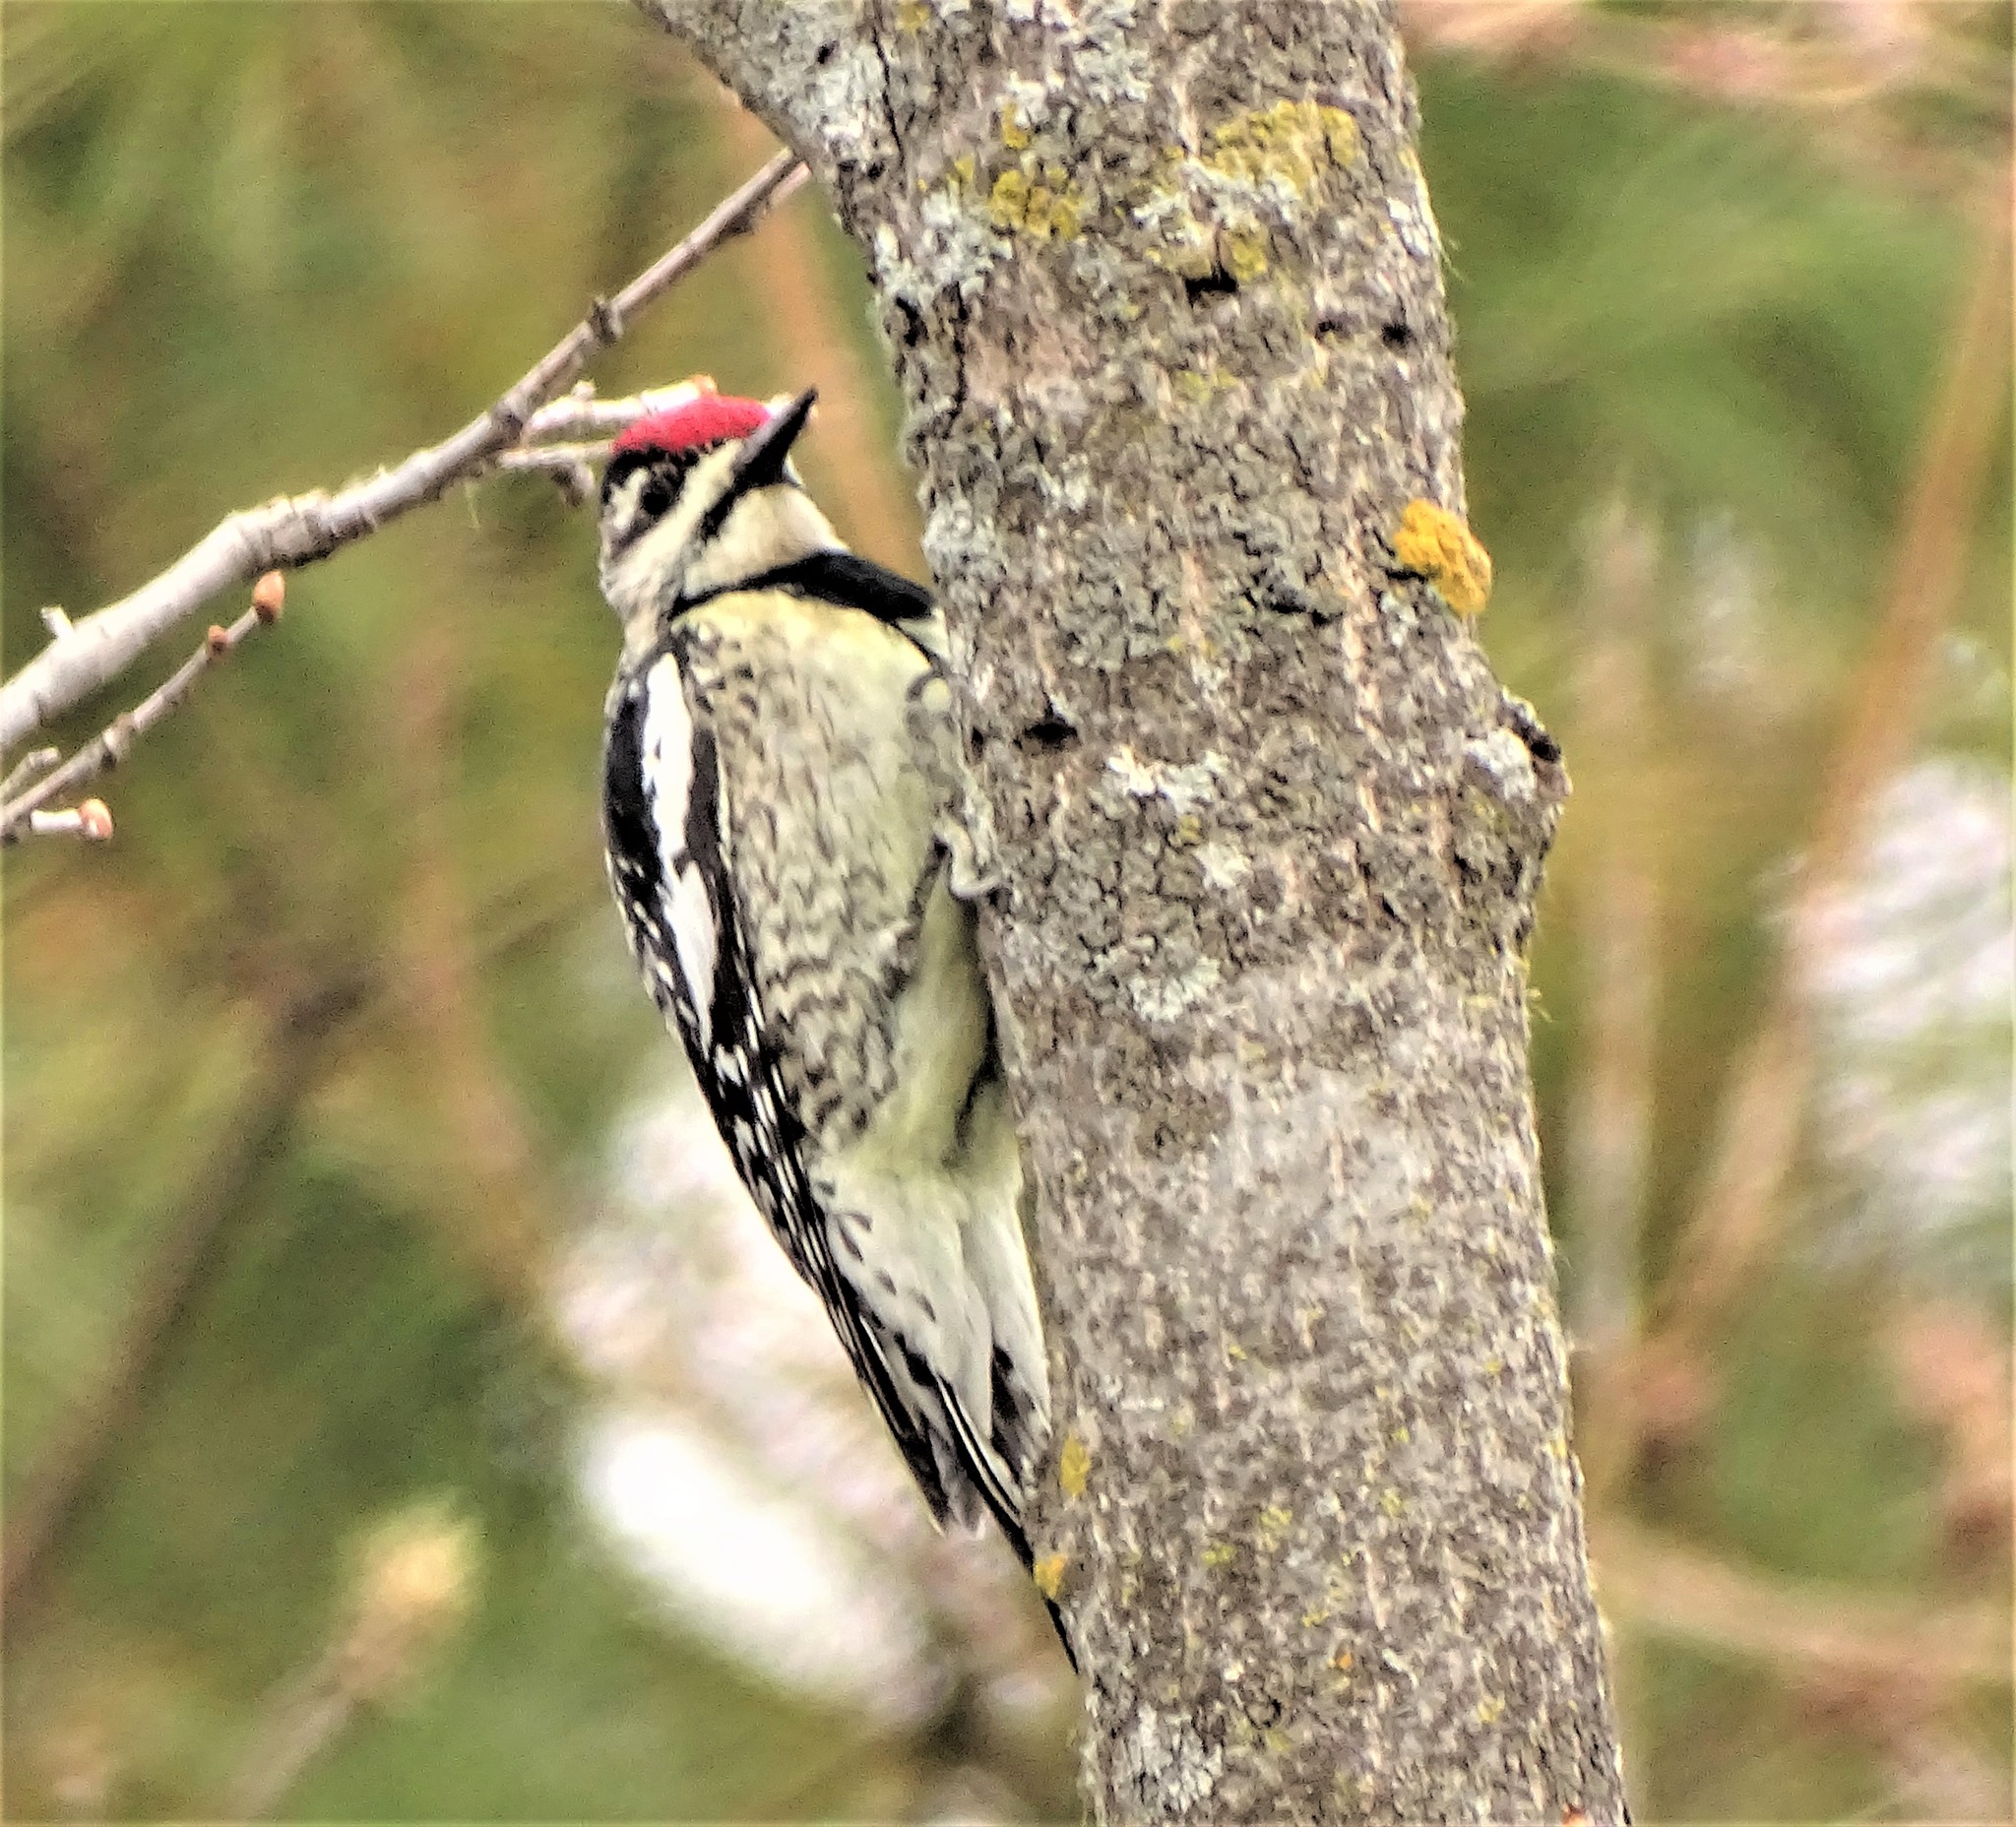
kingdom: Animalia
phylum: Chordata
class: Aves
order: Piciformes
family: Picidae
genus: Sphyrapicus
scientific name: Sphyrapicus varius
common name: Yellow-bellied sapsucker
